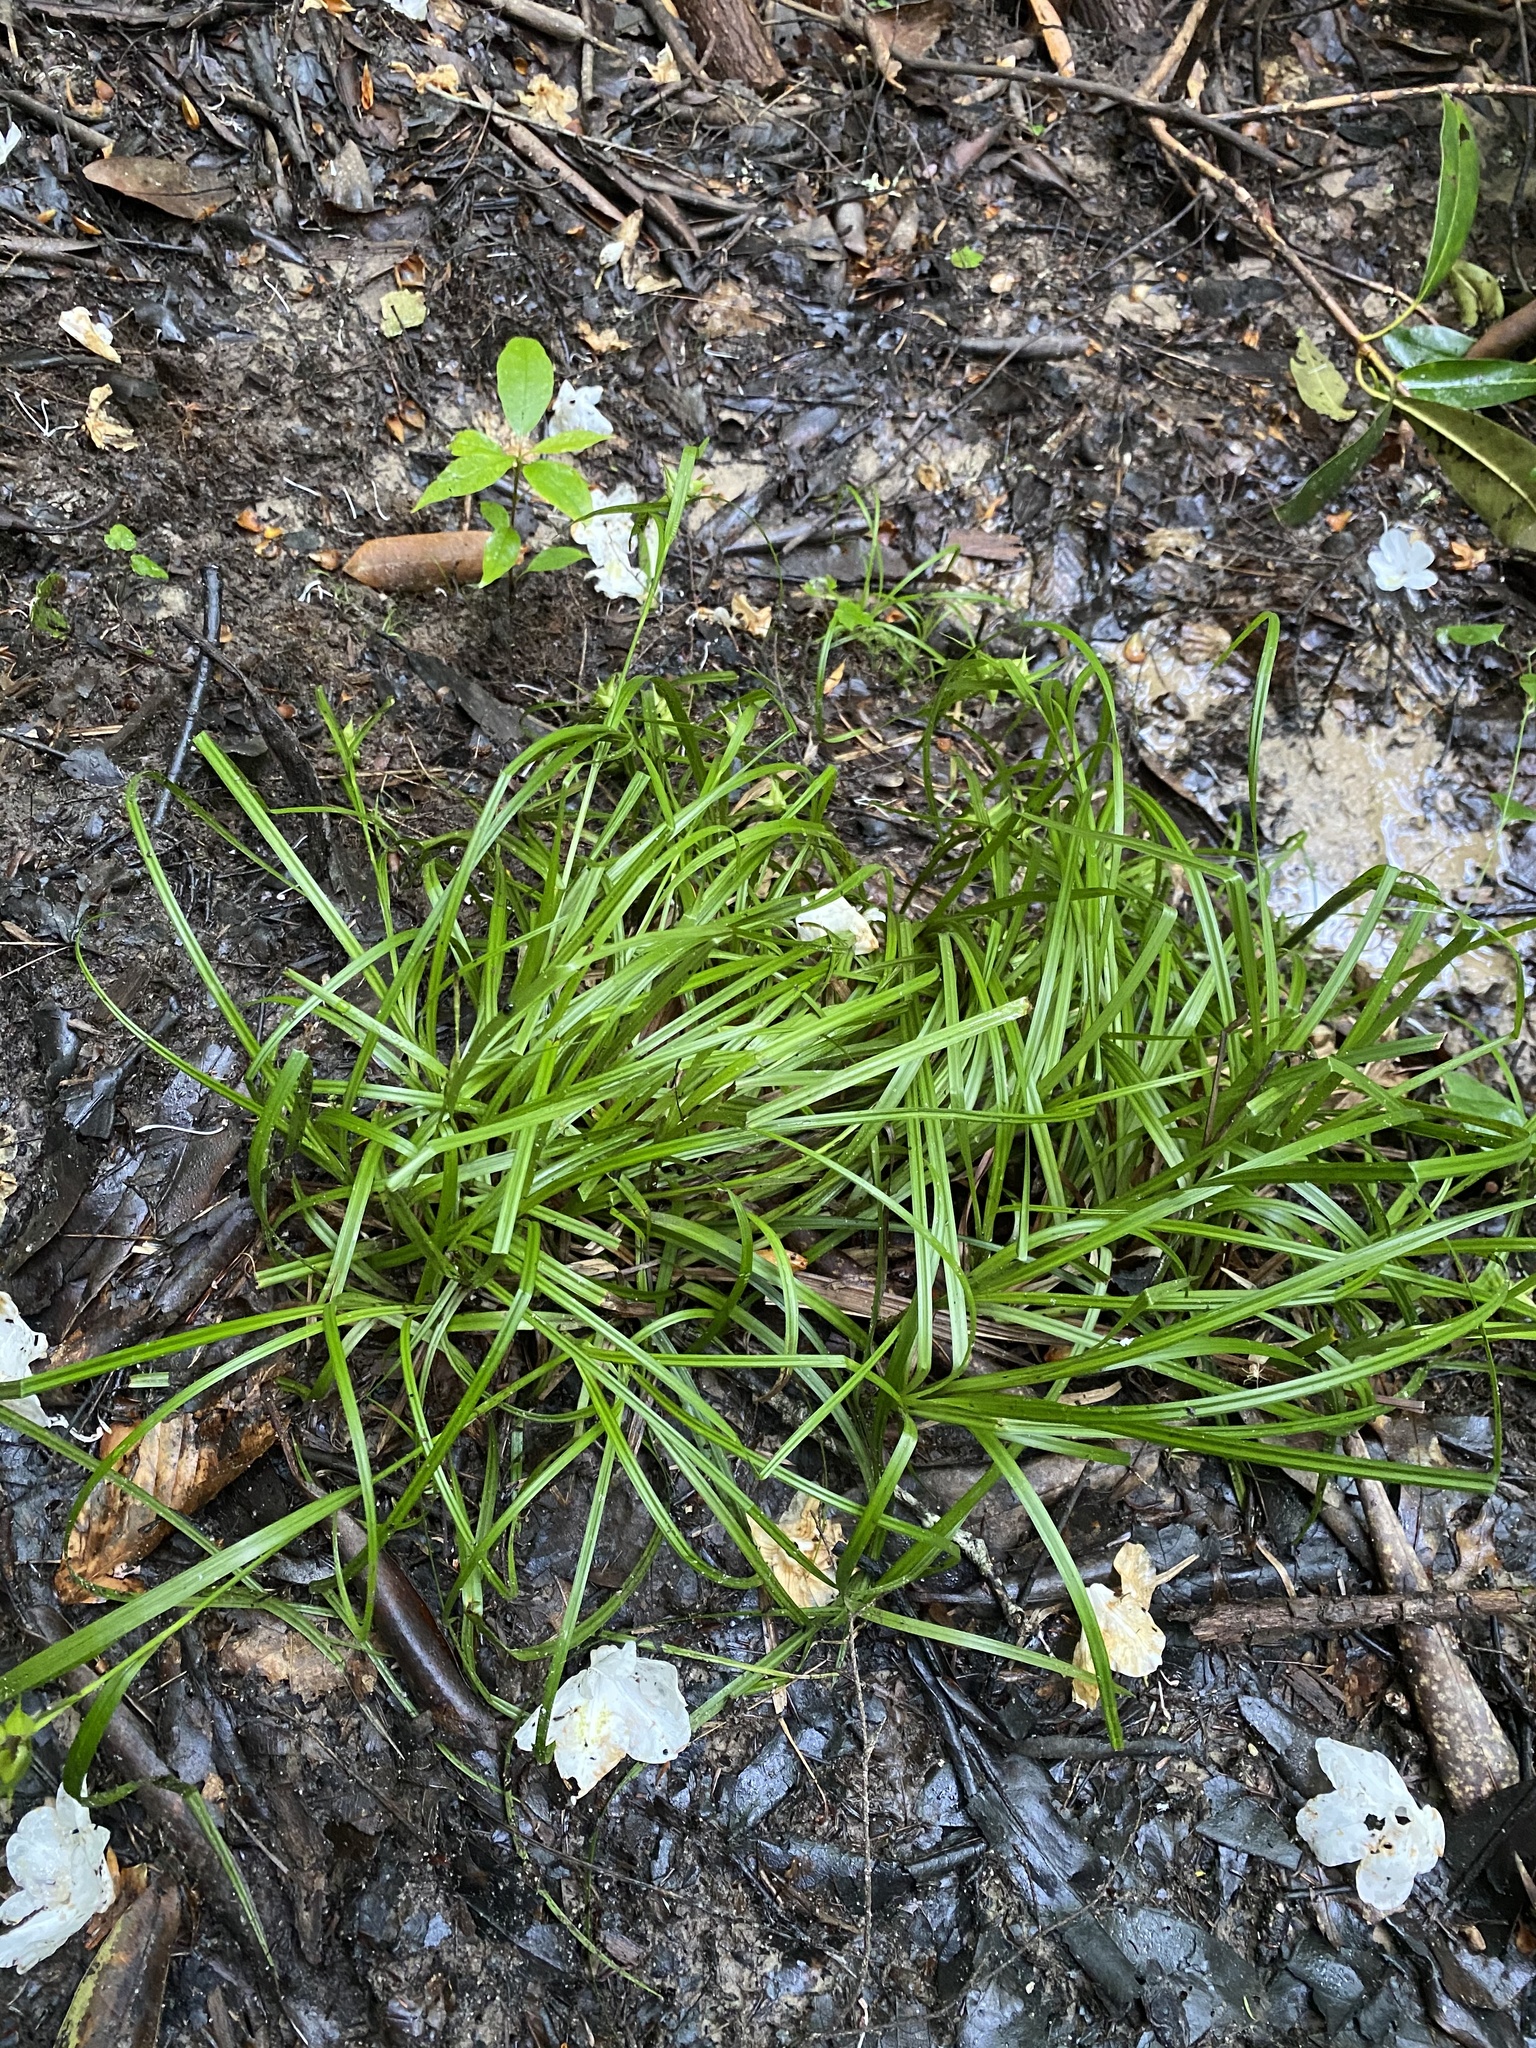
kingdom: Plantae
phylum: Tracheophyta
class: Liliopsida
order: Poales
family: Cyperaceae
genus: Carex
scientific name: Carex intumescens
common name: Greater bladder sedge
